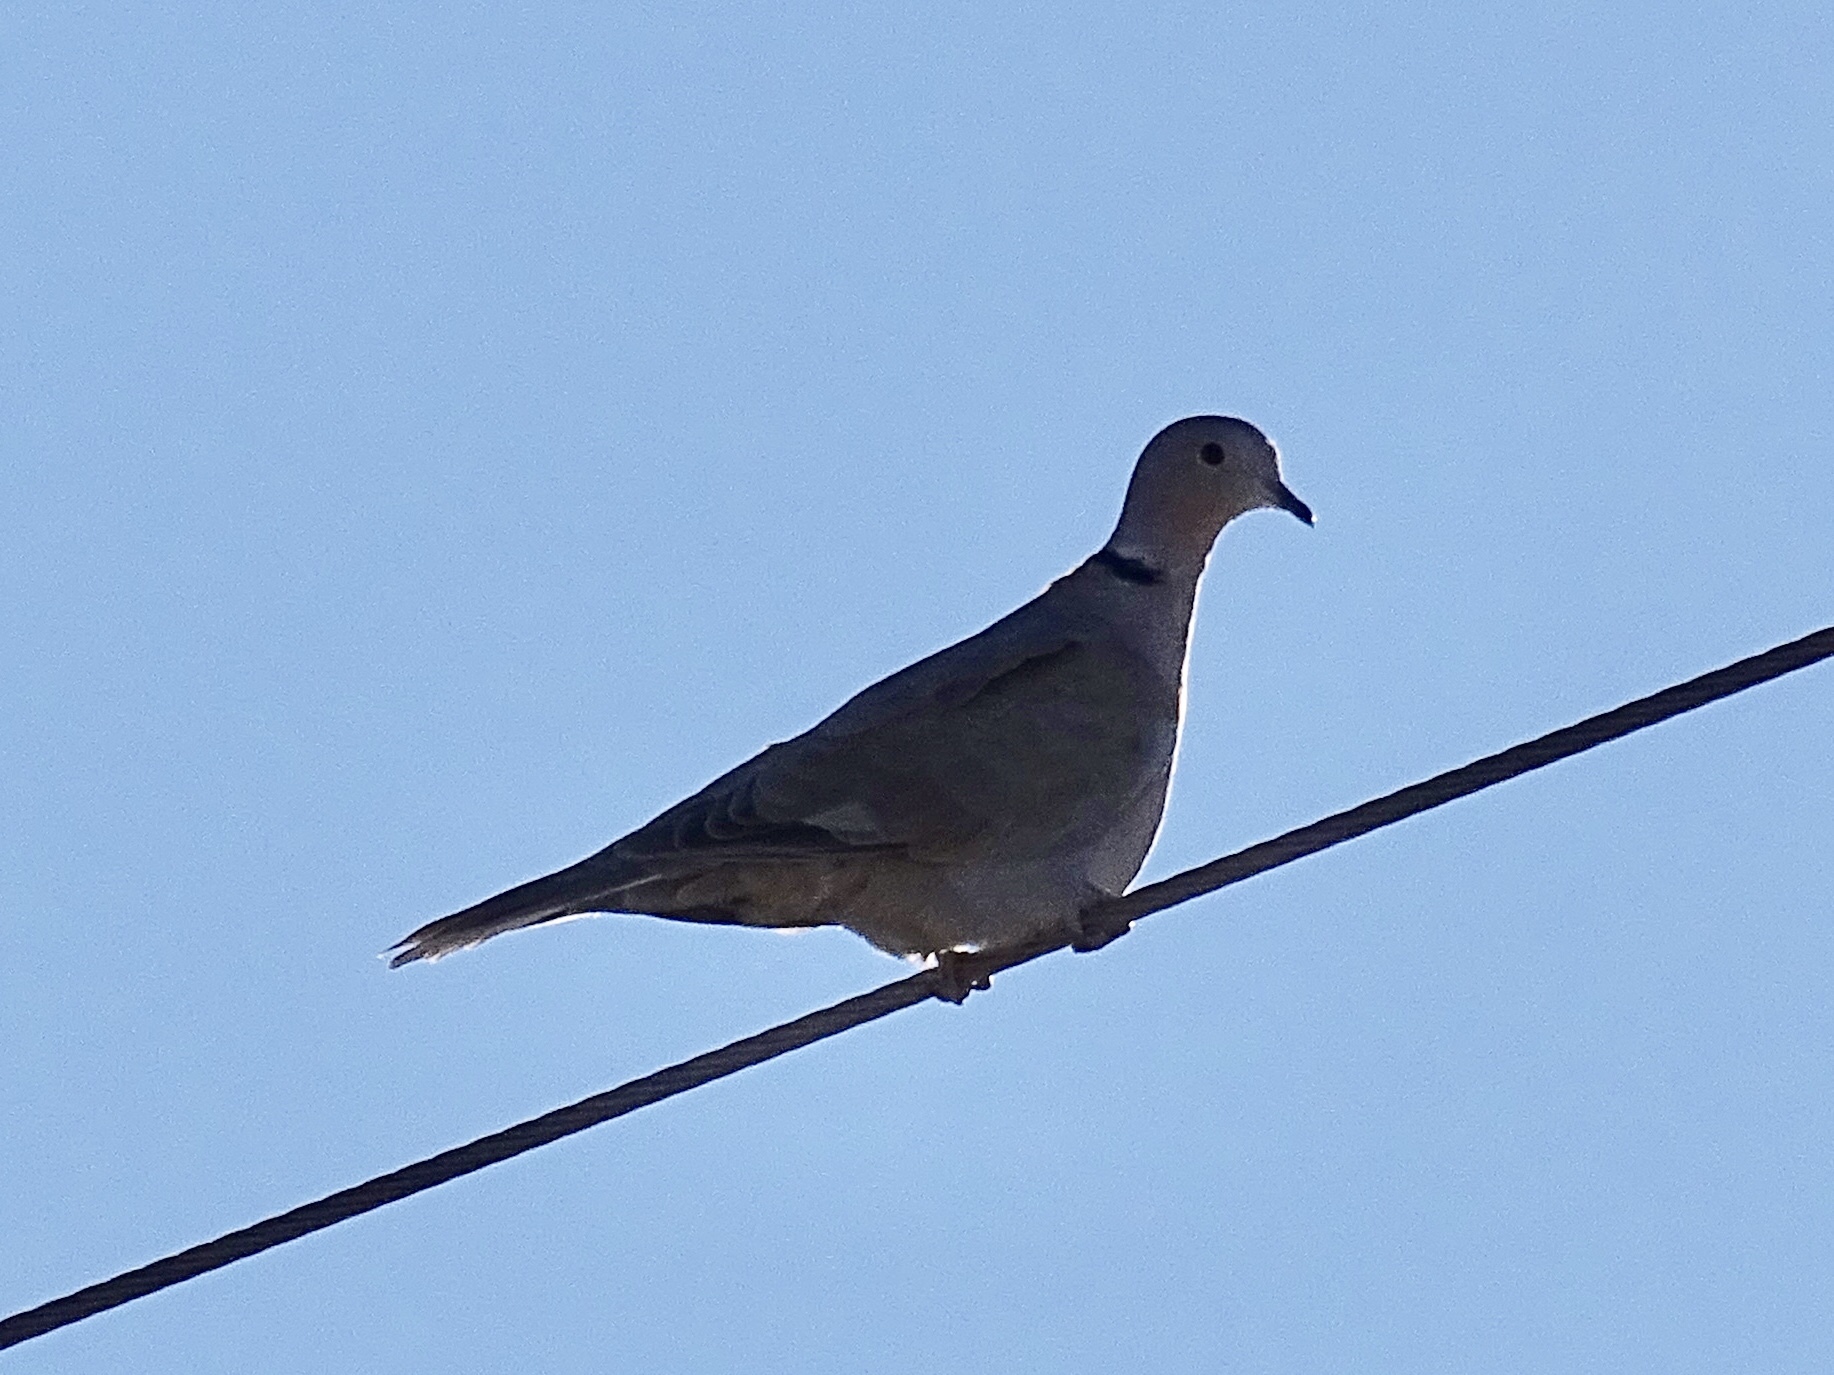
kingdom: Animalia
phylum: Chordata
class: Aves
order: Columbiformes
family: Columbidae
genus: Streptopelia
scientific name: Streptopelia decaocto
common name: Eurasian collared dove
